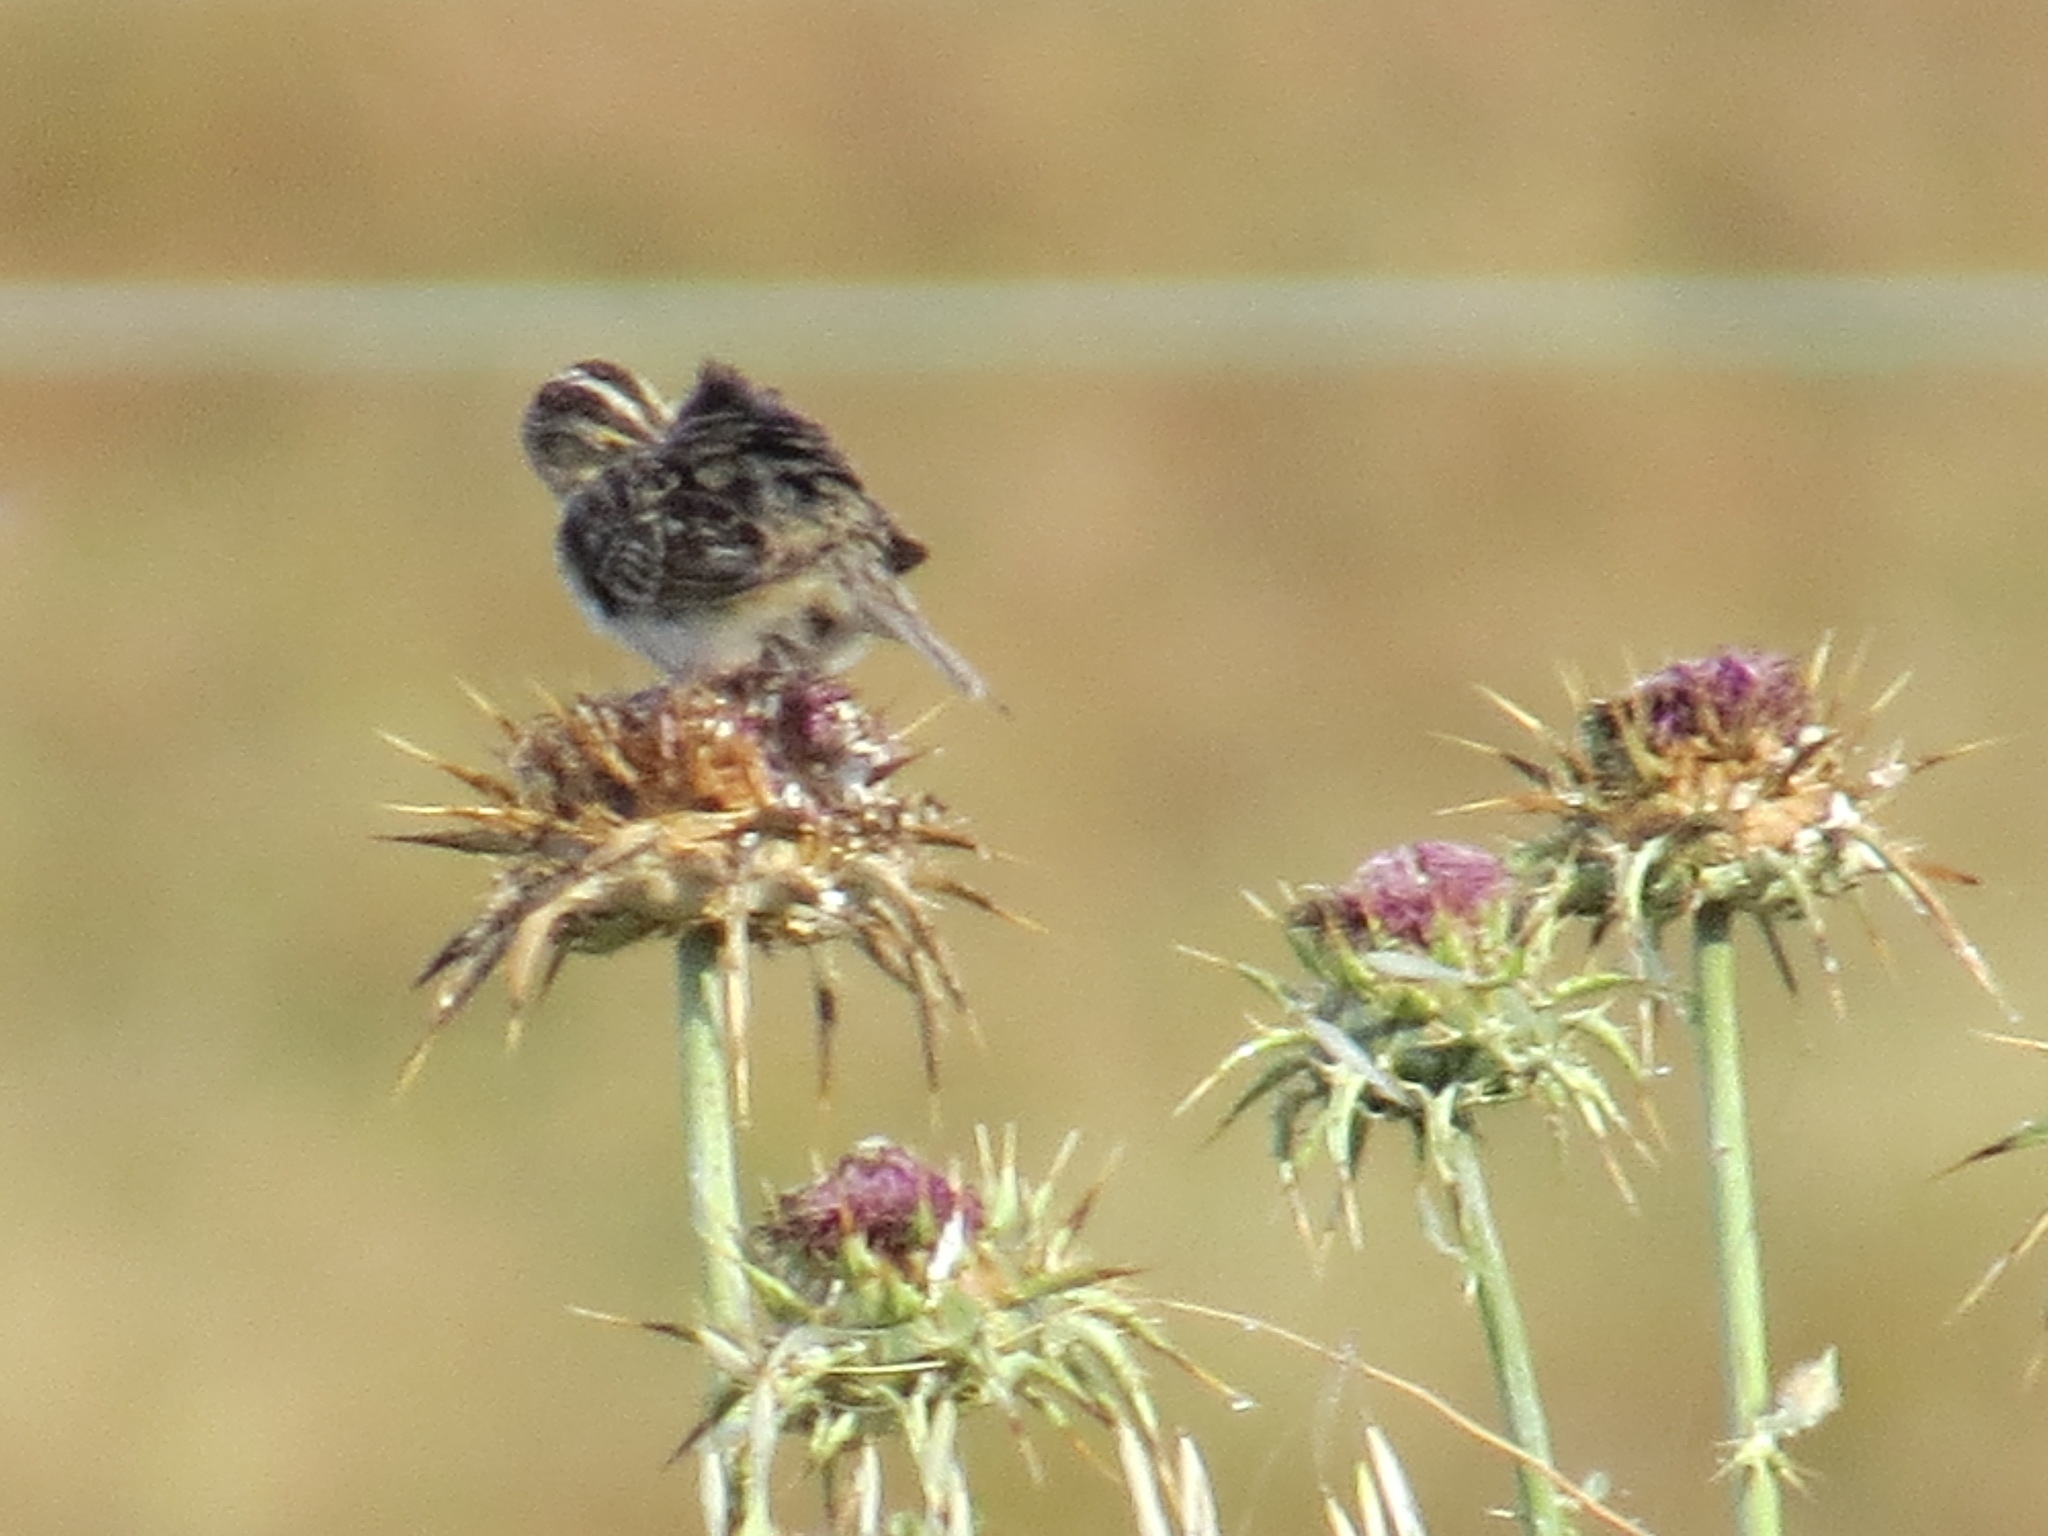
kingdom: Animalia
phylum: Chordata
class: Aves
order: Passeriformes
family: Passerellidae
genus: Ammodramus
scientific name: Ammodramus savannarum
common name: Grasshopper sparrow
